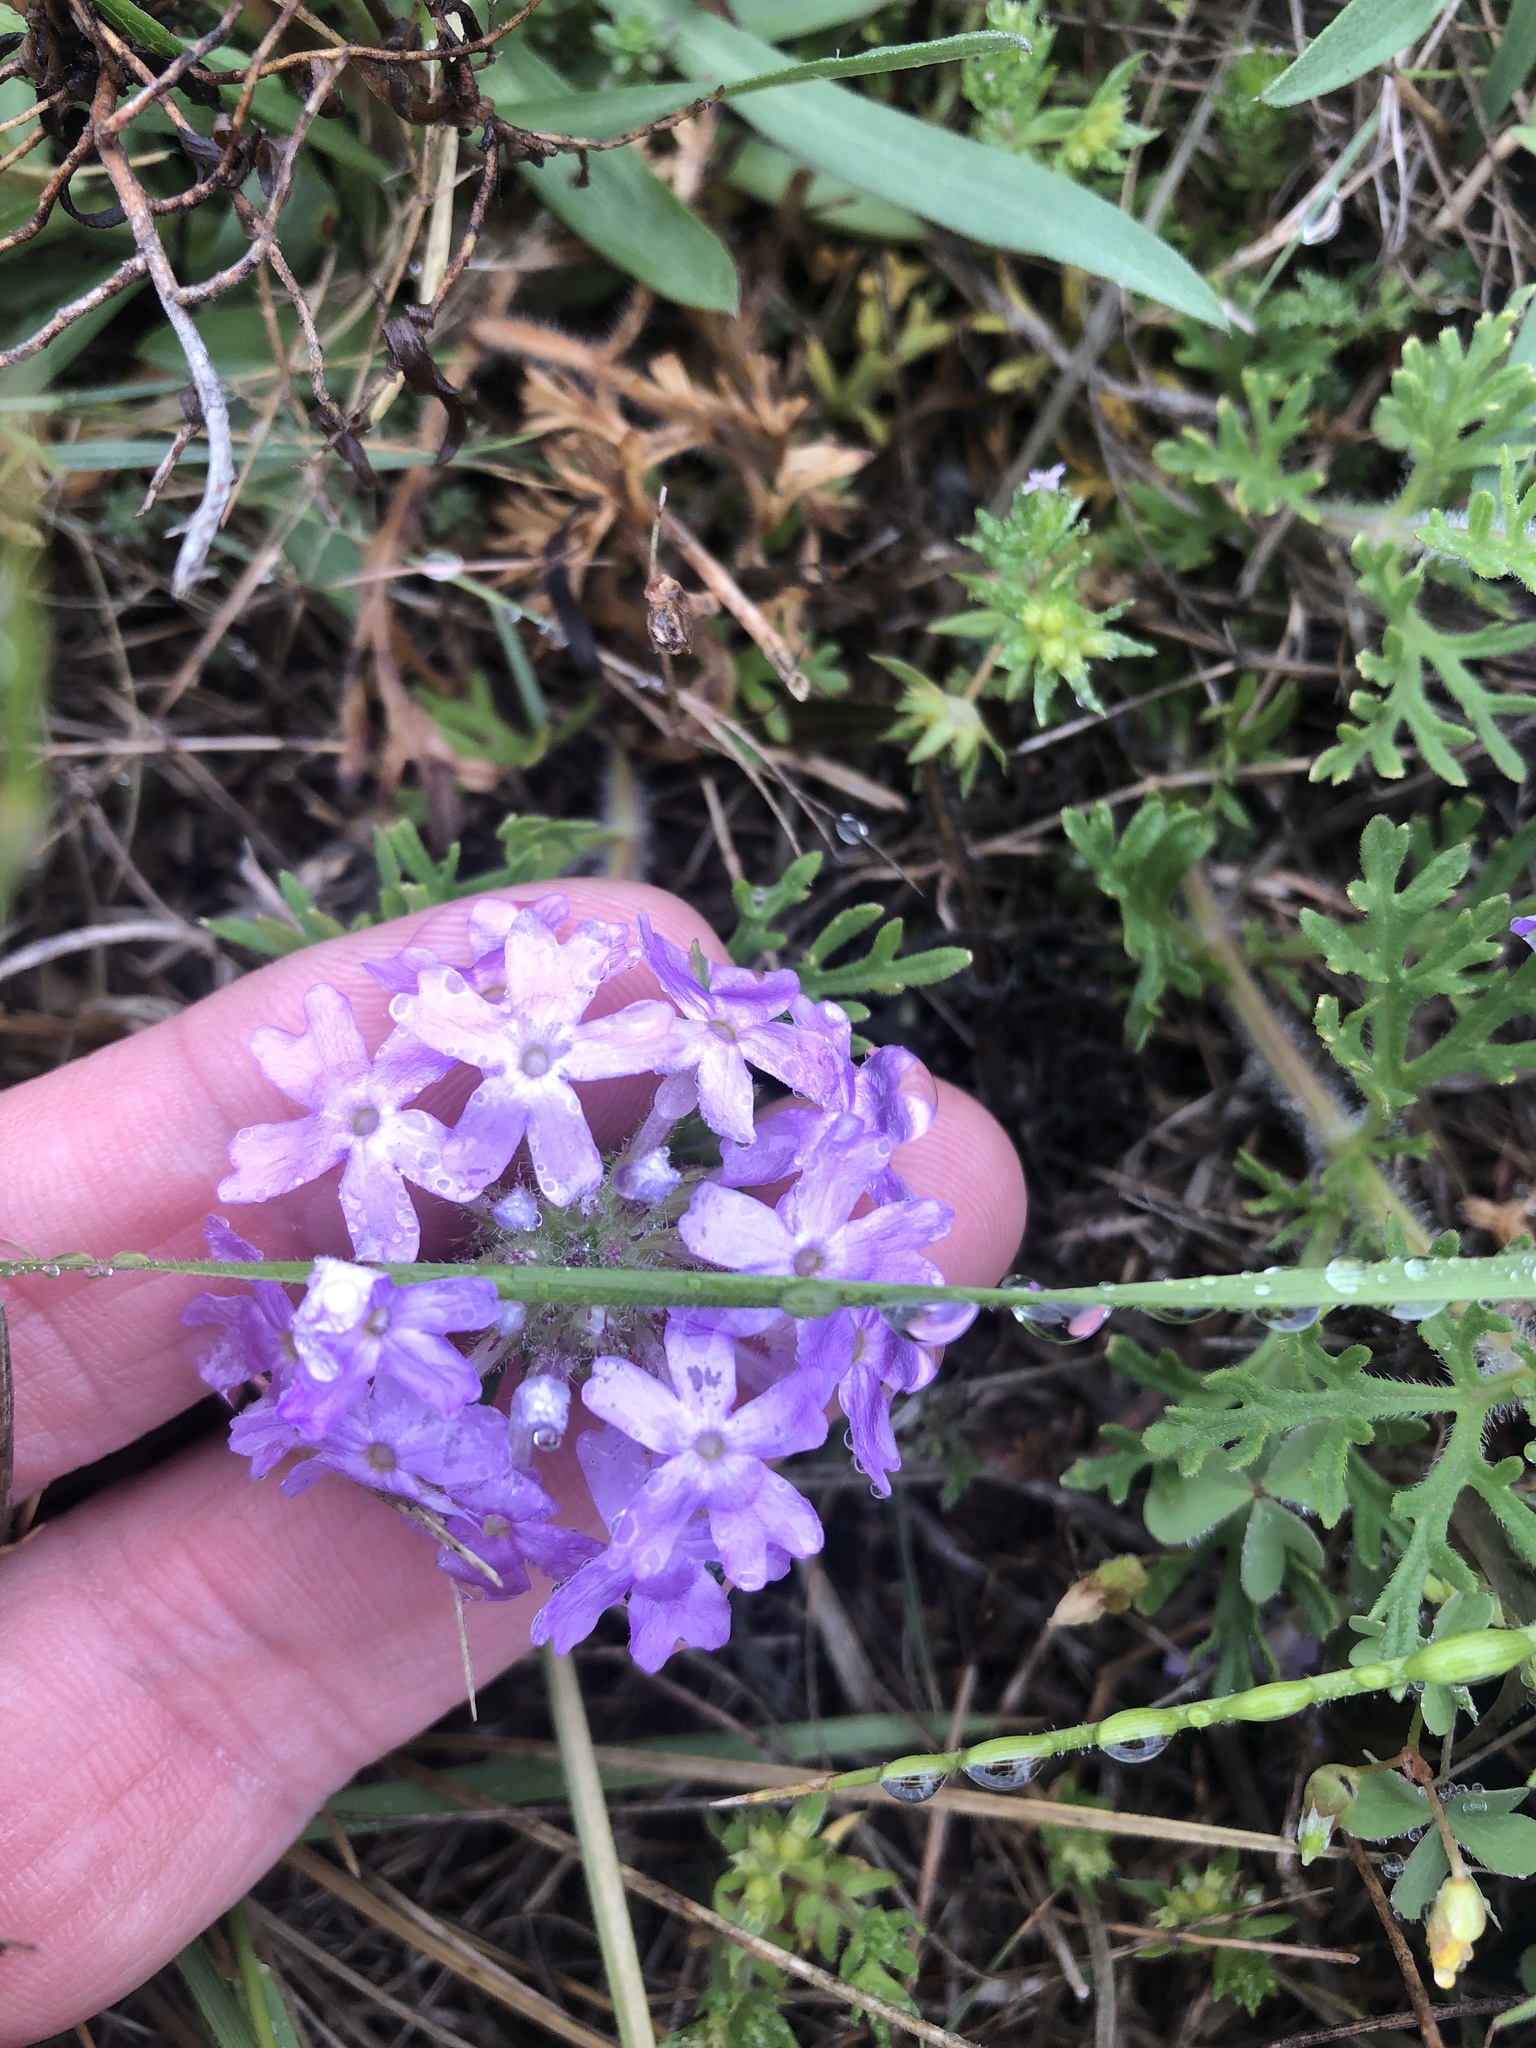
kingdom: Plantae
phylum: Tracheophyta
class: Magnoliopsida
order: Lamiales
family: Verbenaceae
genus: Verbena
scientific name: Verbena bipinnatifida
